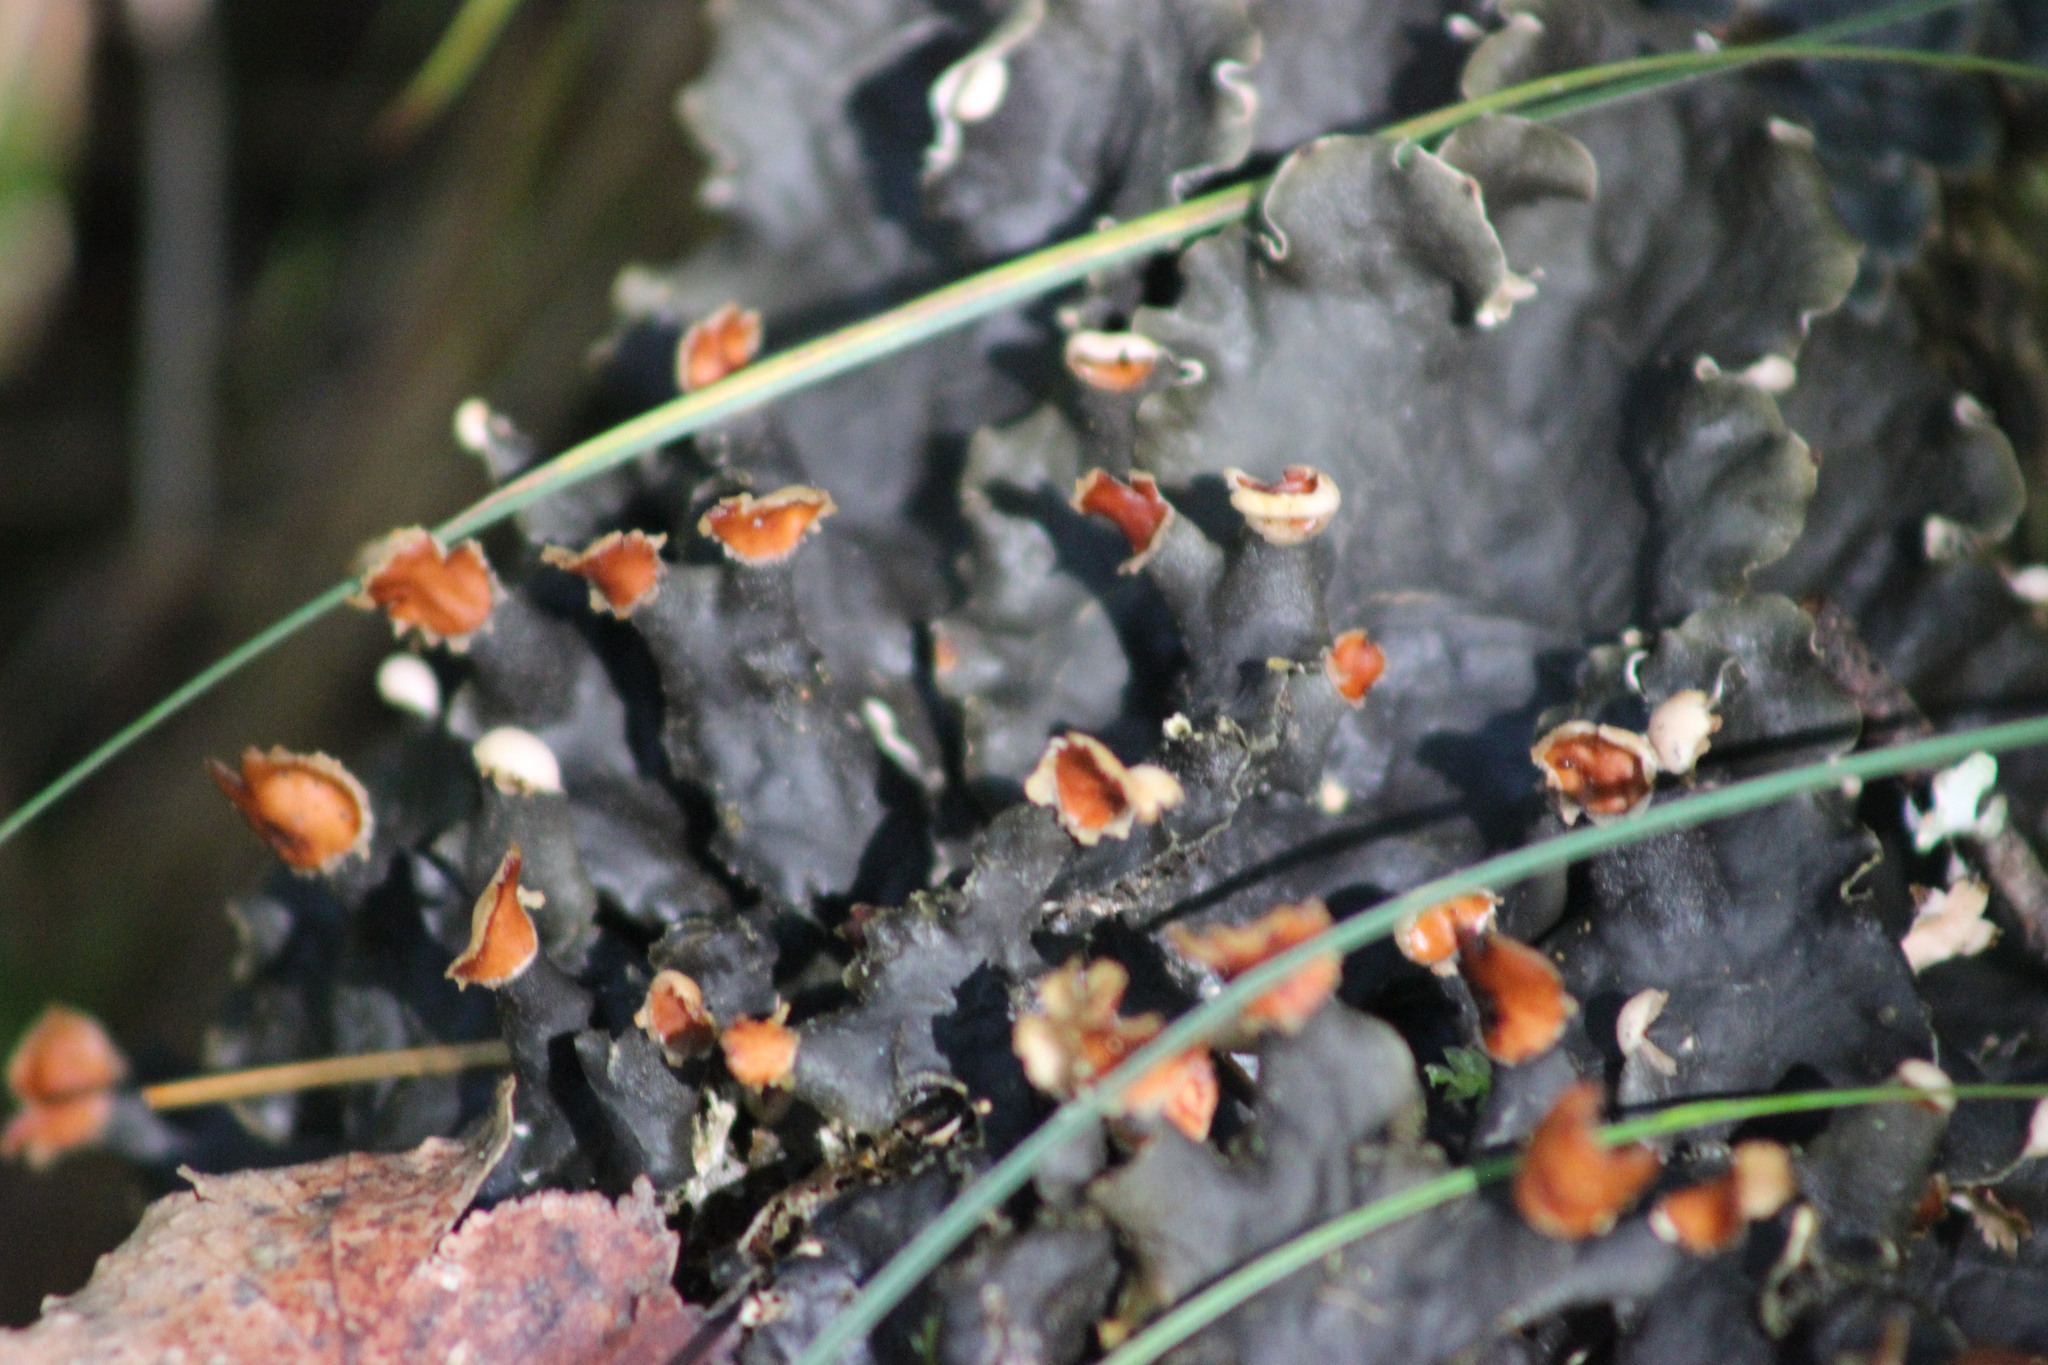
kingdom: Fungi
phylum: Ascomycota
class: Lecanoromycetes
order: Peltigerales
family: Peltigeraceae
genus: Peltigera
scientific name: Peltigera polydactylon
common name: Many-fruited pelt lichen
